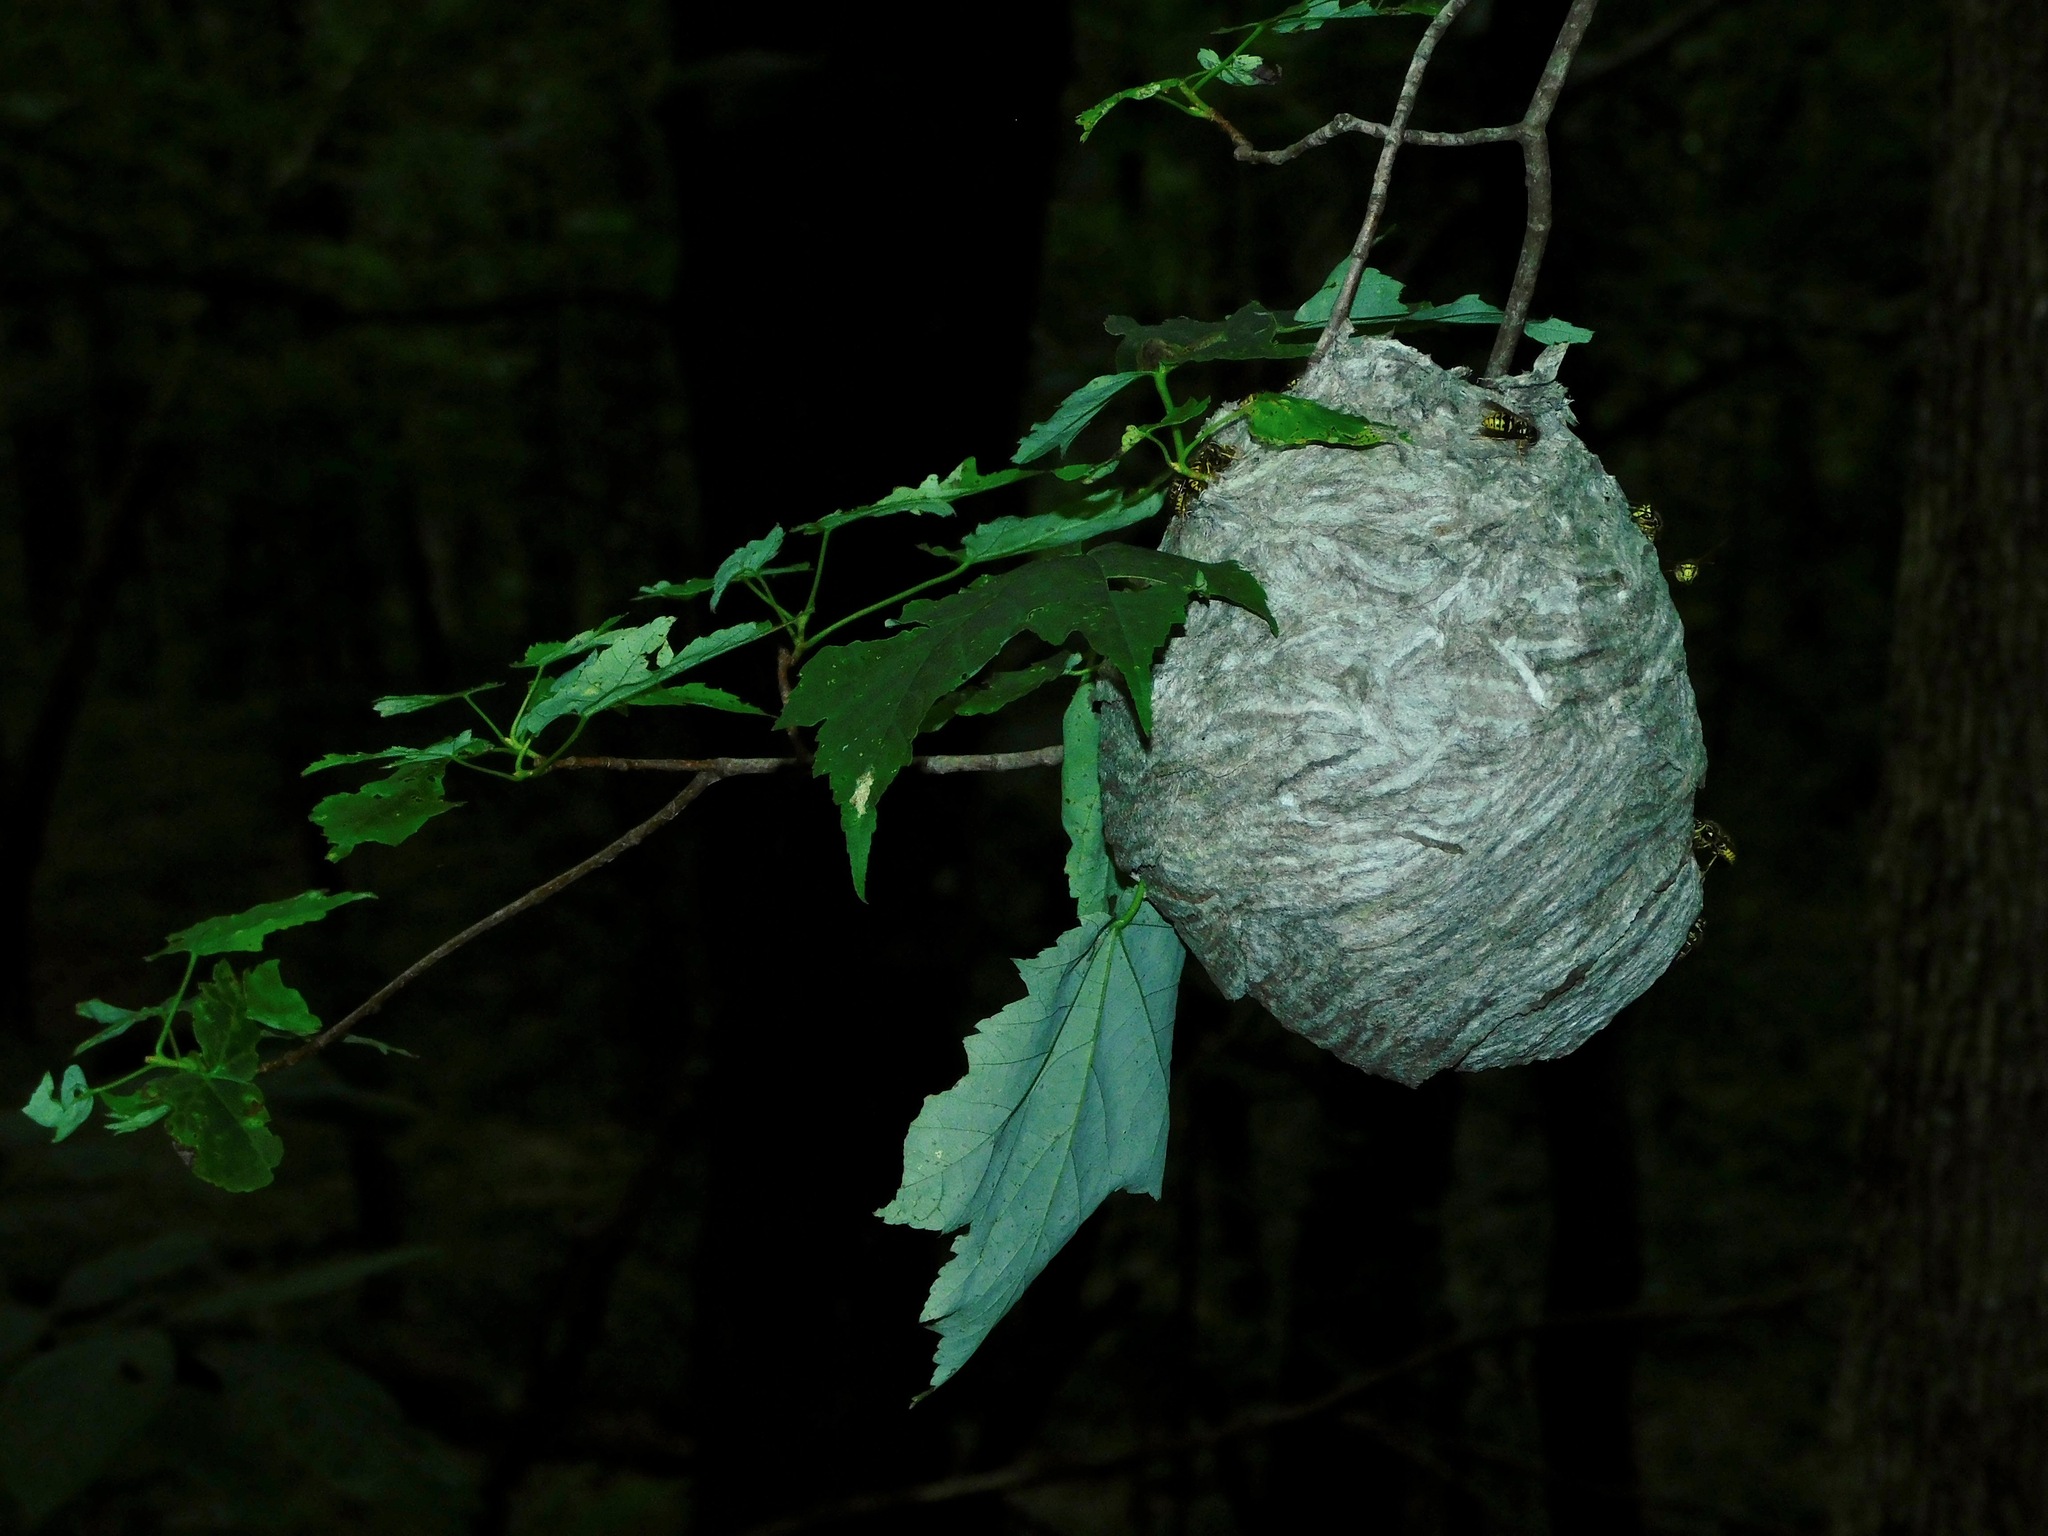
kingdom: Animalia
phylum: Arthropoda
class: Insecta
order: Hymenoptera
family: Vespidae
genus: Dolichovespula
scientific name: Dolichovespula arenaria
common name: Aerial yellowjacket
